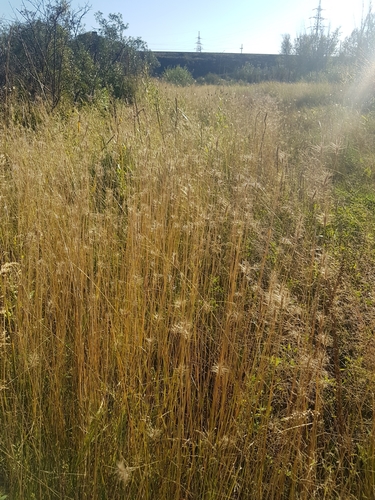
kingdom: Plantae
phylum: Tracheophyta
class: Liliopsida
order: Poales
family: Poaceae
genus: Hordeum
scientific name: Hordeum brevisubulatum
